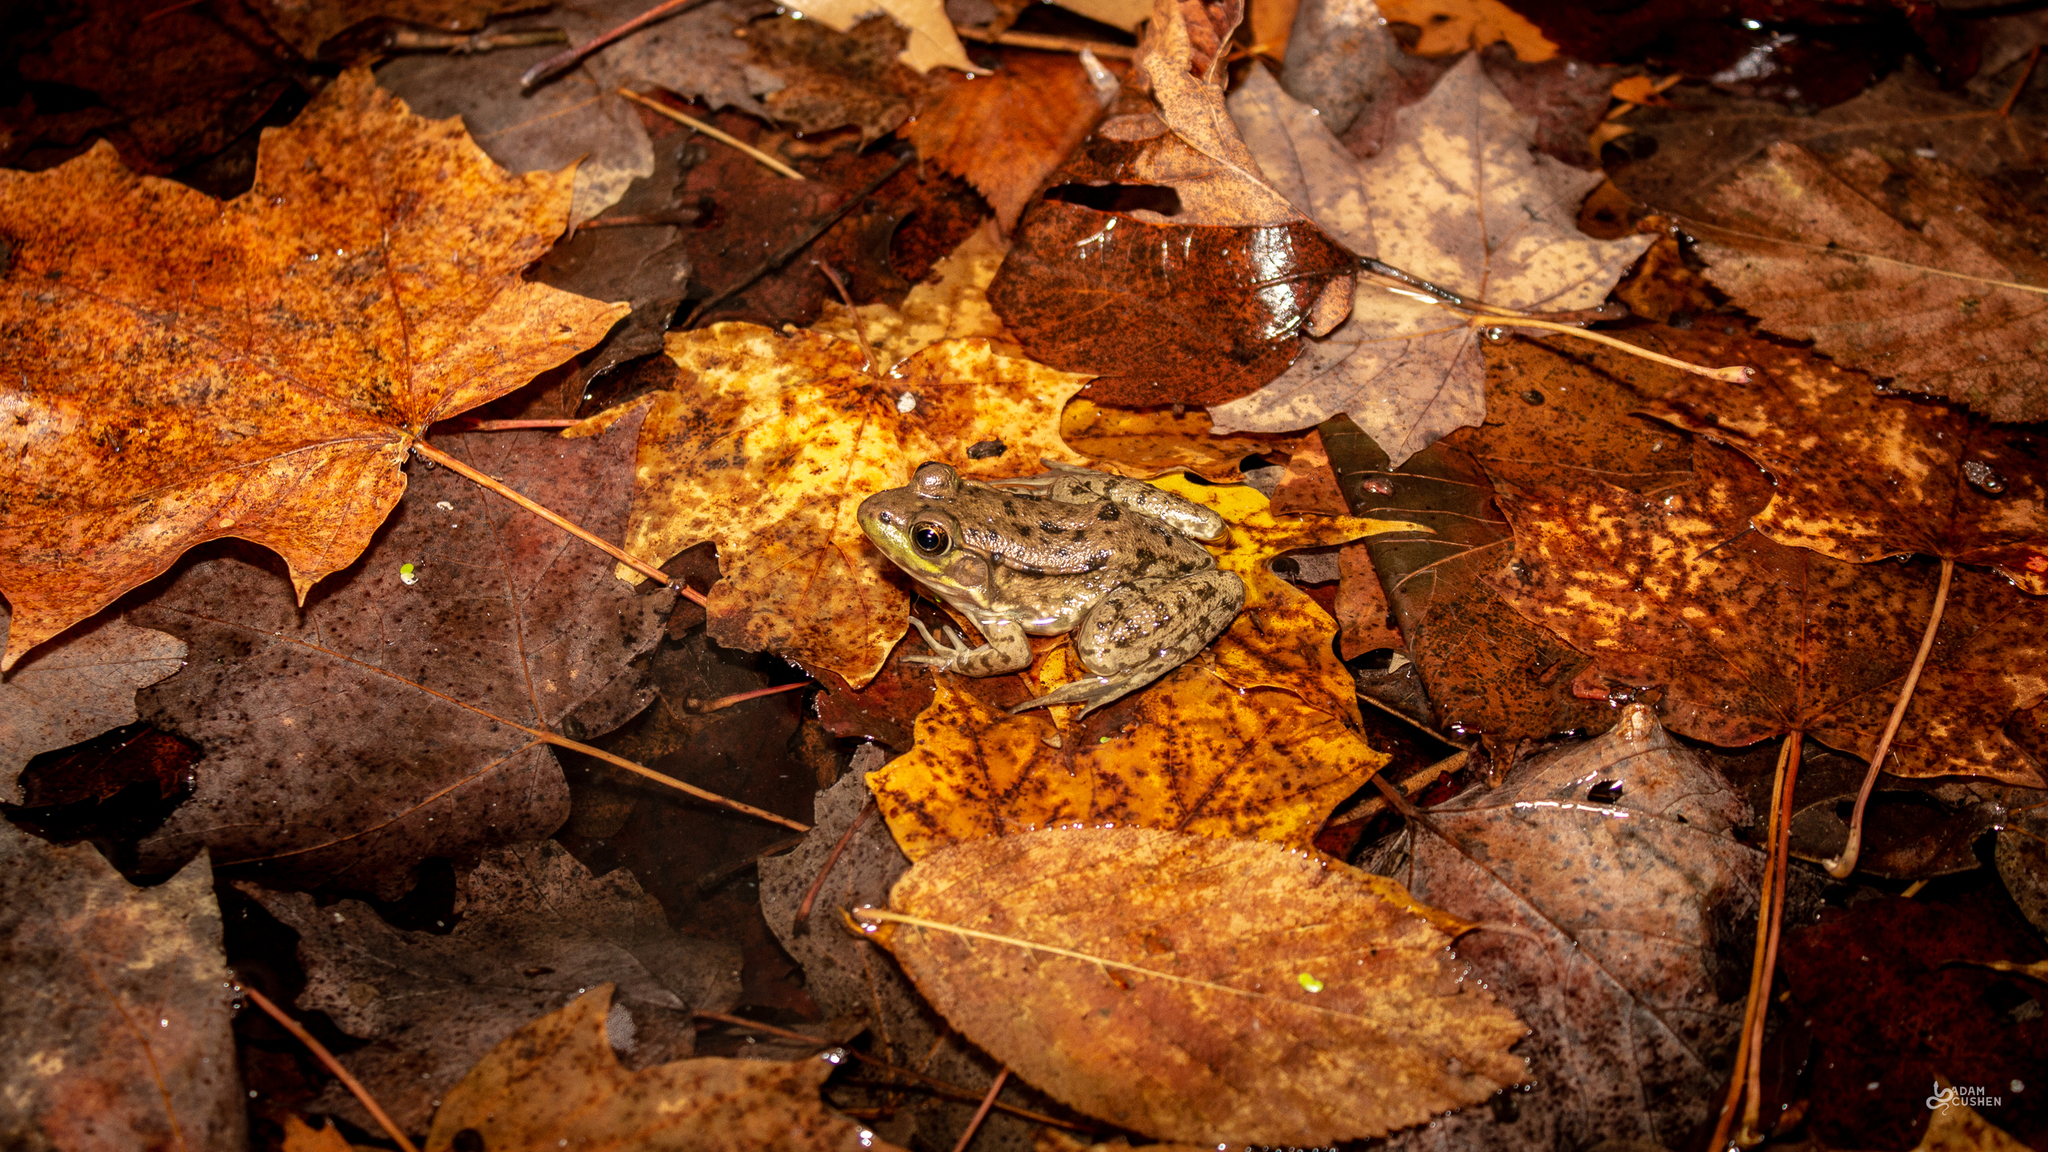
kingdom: Animalia
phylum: Chordata
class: Amphibia
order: Anura
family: Ranidae
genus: Lithobates
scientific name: Lithobates clamitans
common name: Green frog
